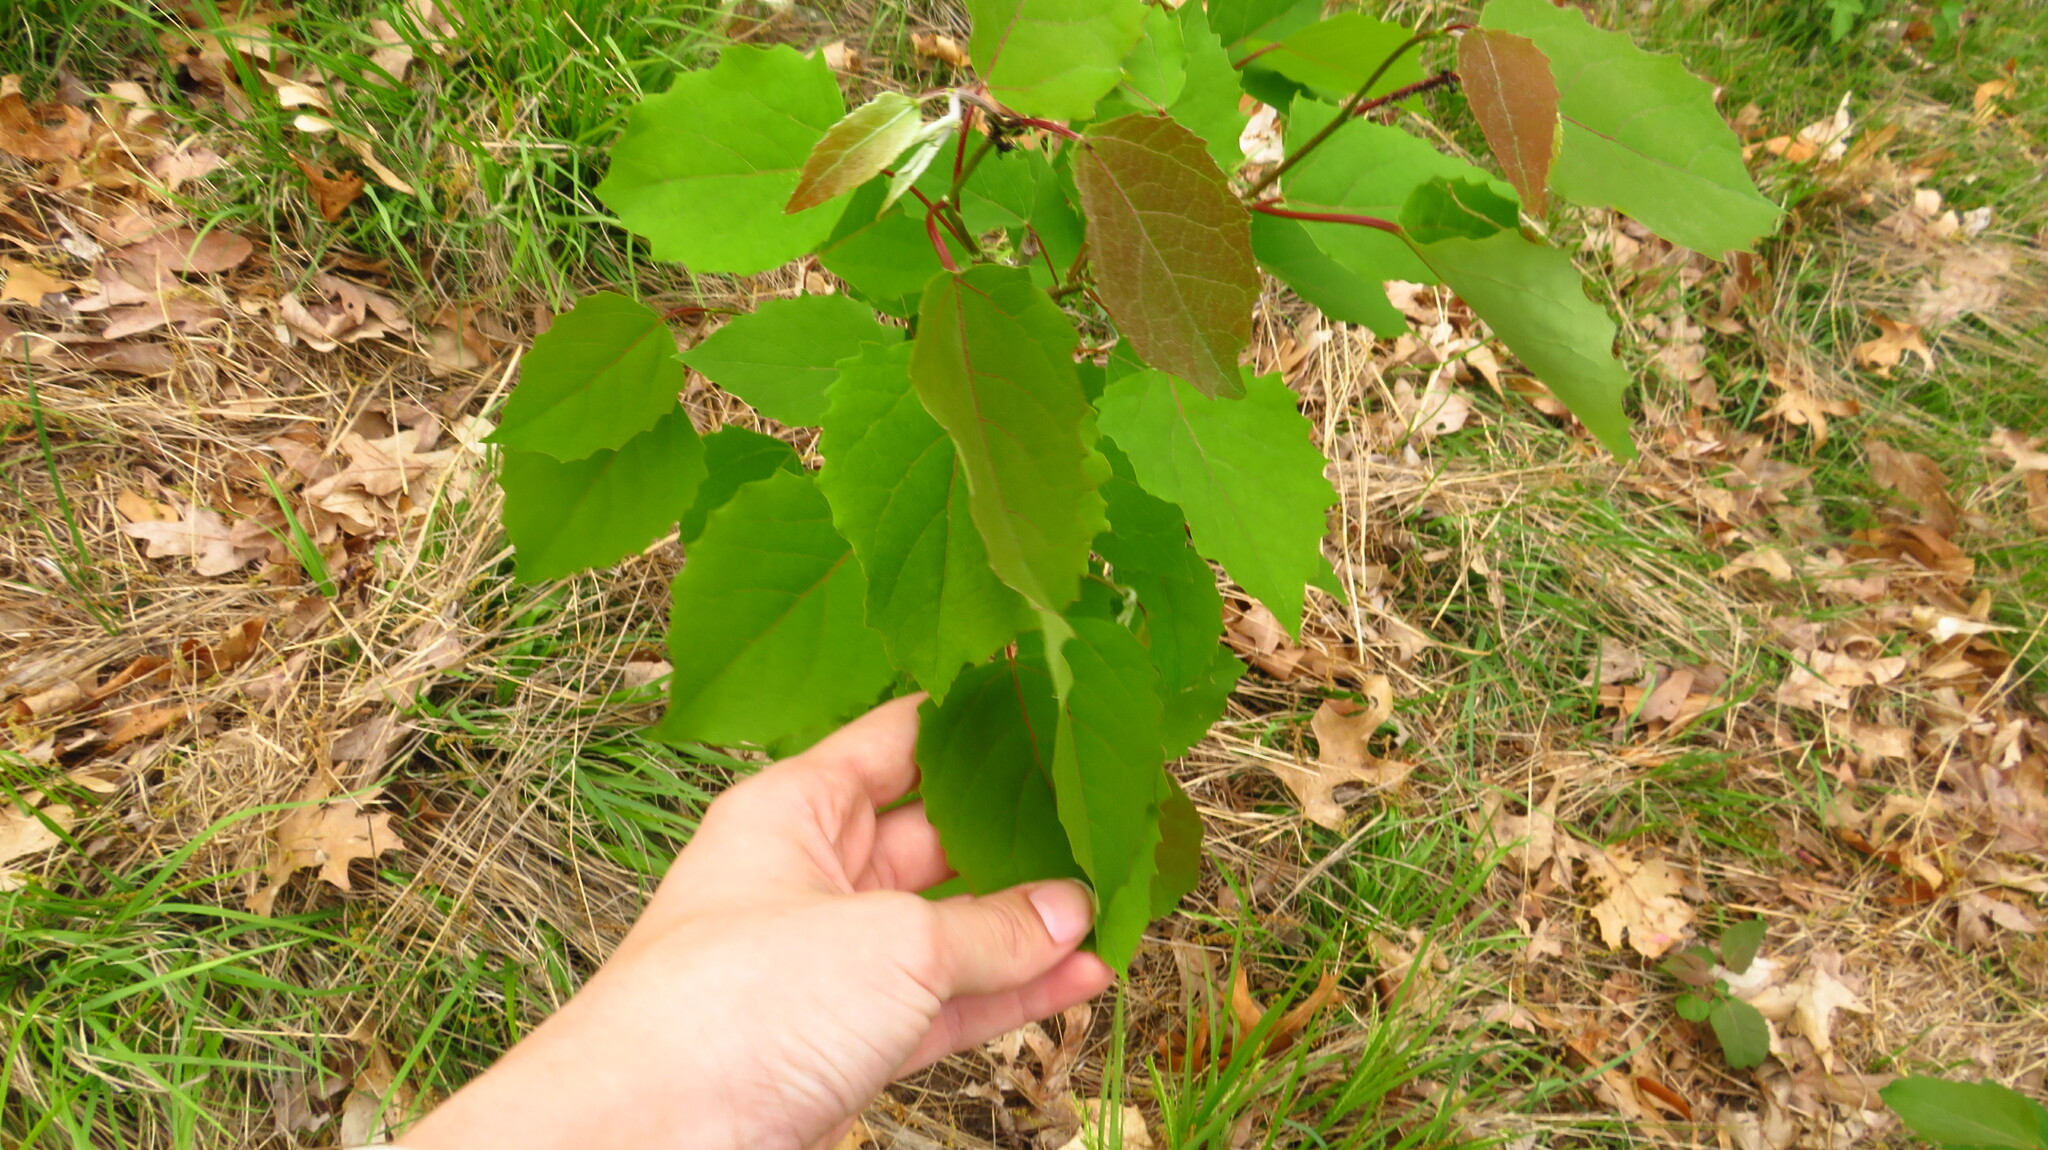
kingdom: Plantae
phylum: Tracheophyta
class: Magnoliopsida
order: Malpighiales
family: Salicaceae
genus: Populus
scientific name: Populus grandidentata
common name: Bigtooth aspen
